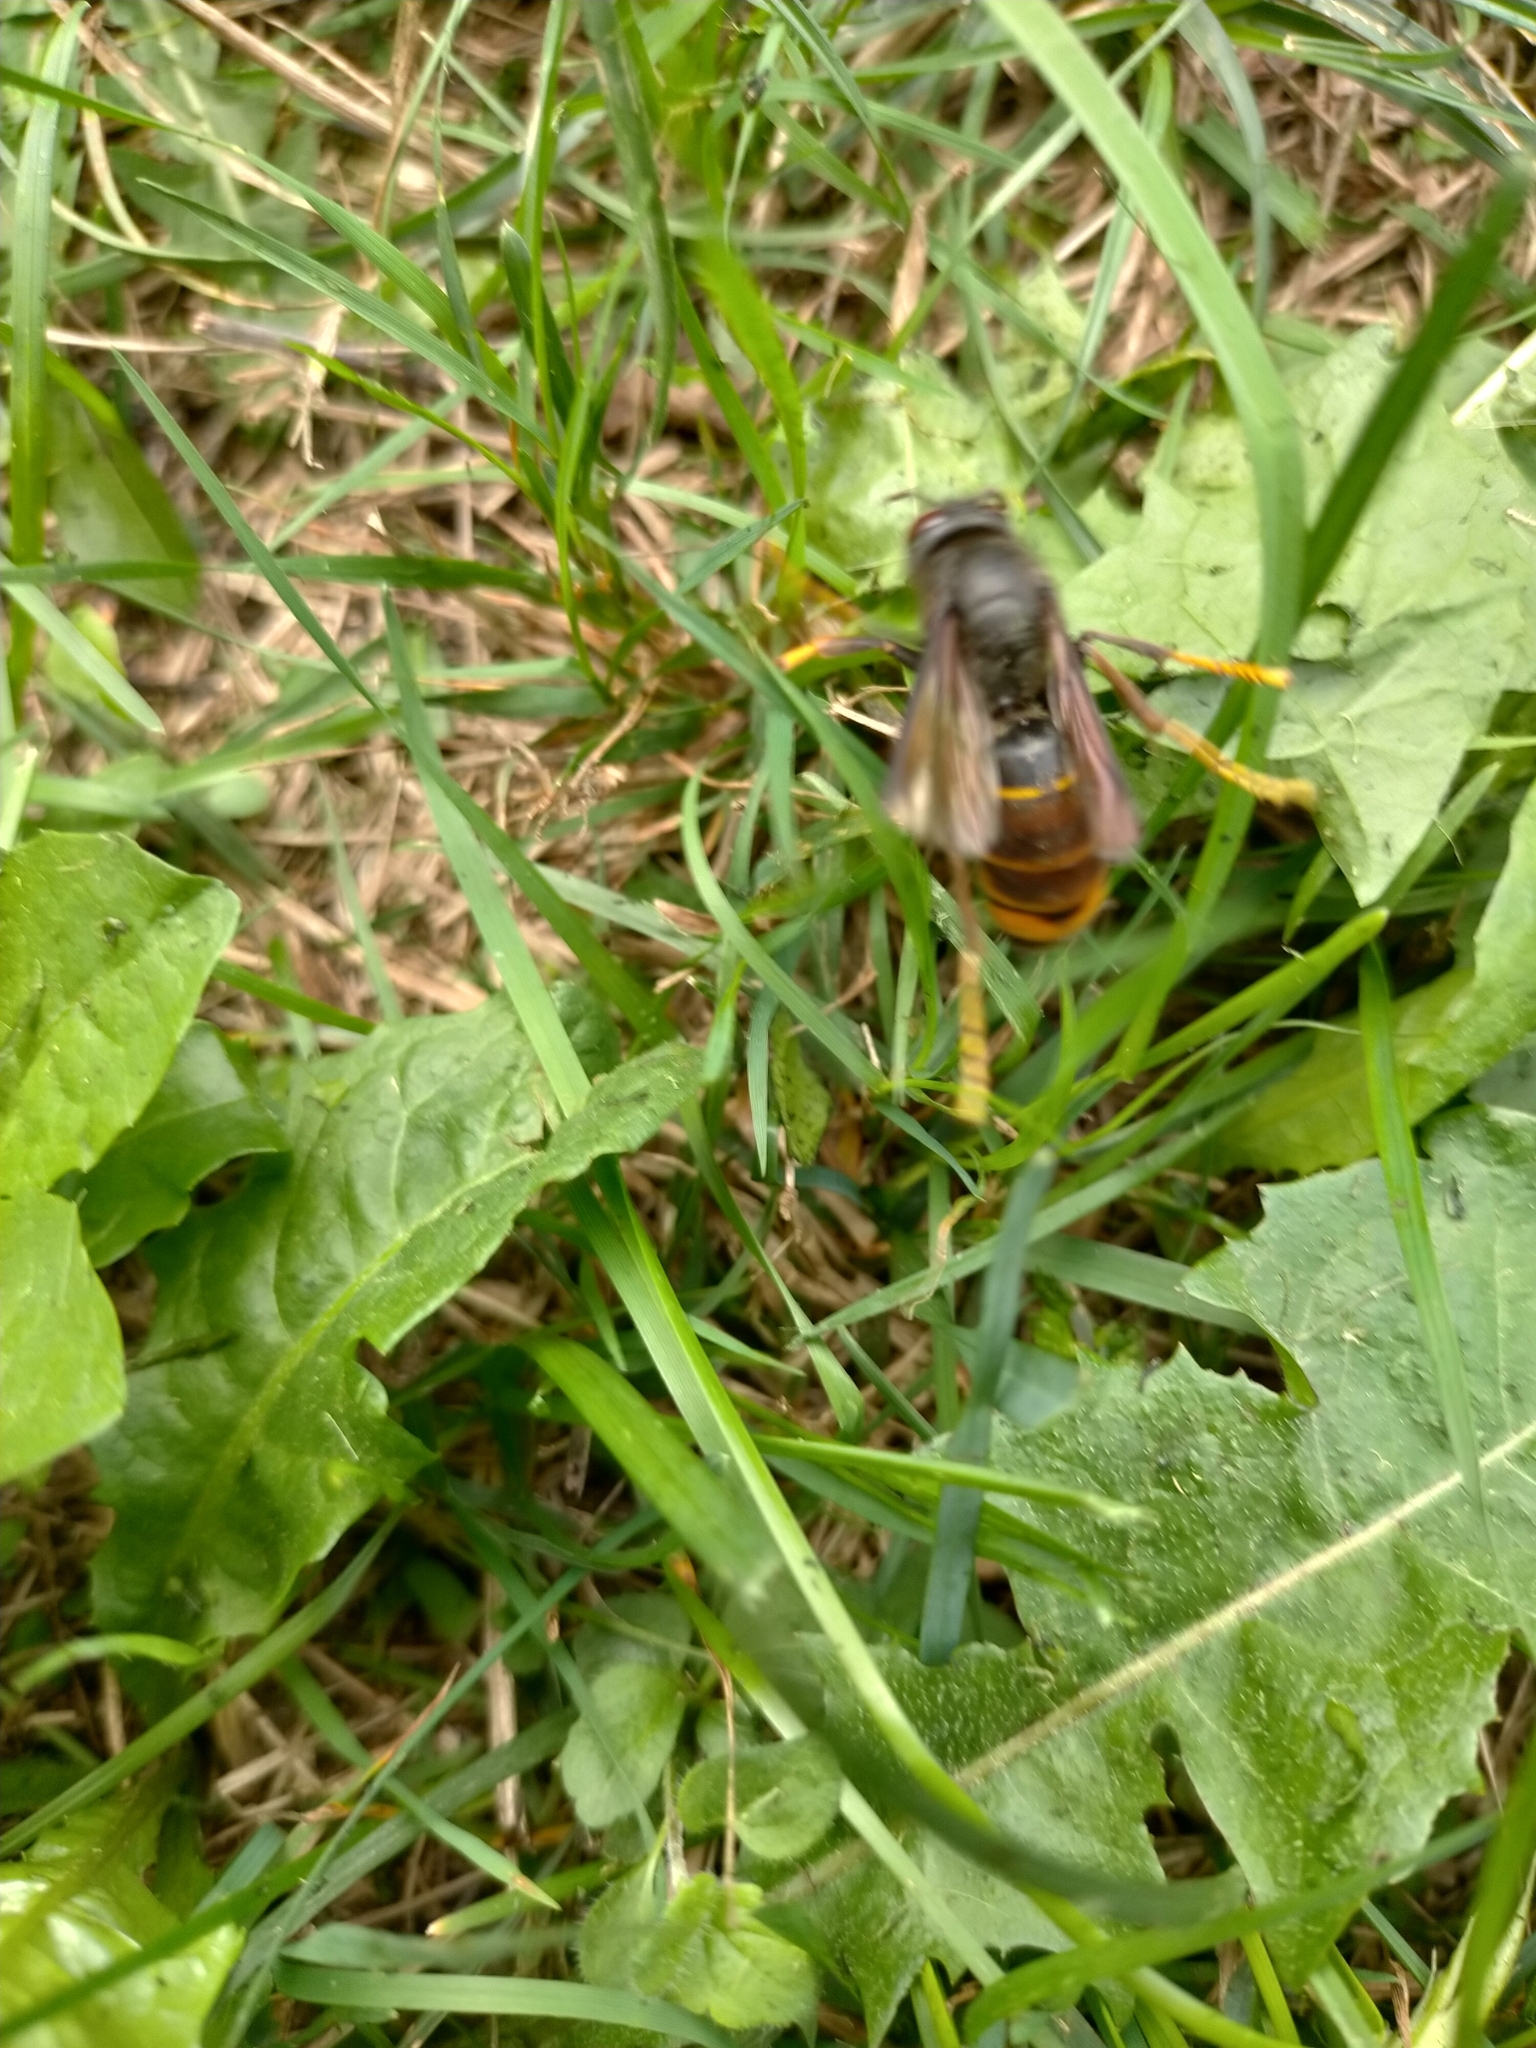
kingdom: Animalia
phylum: Arthropoda
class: Insecta
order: Hymenoptera
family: Vespidae
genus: Vespa
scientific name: Vespa velutina
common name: Asian hornet
